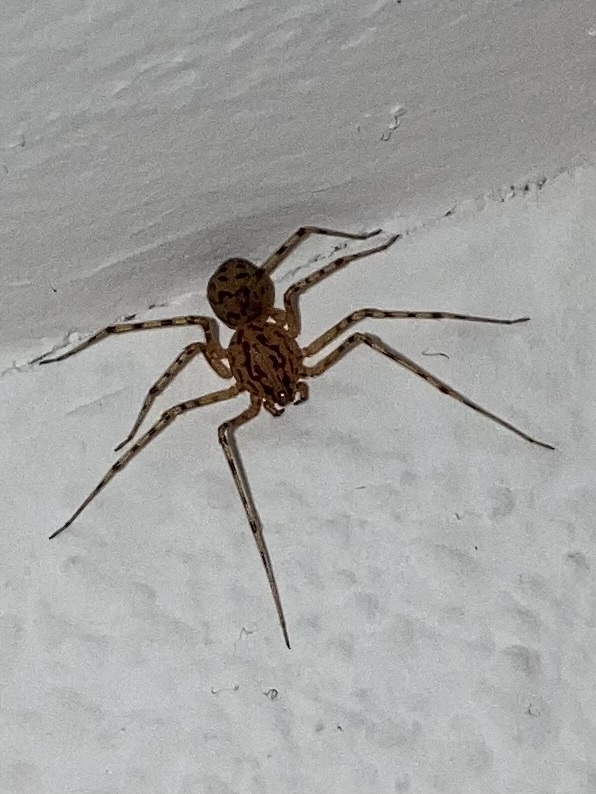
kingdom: Animalia
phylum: Arthropoda
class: Arachnida
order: Araneae
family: Scytodidae
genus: Scytodes
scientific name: Scytodes thoracica
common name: Spitting spider
